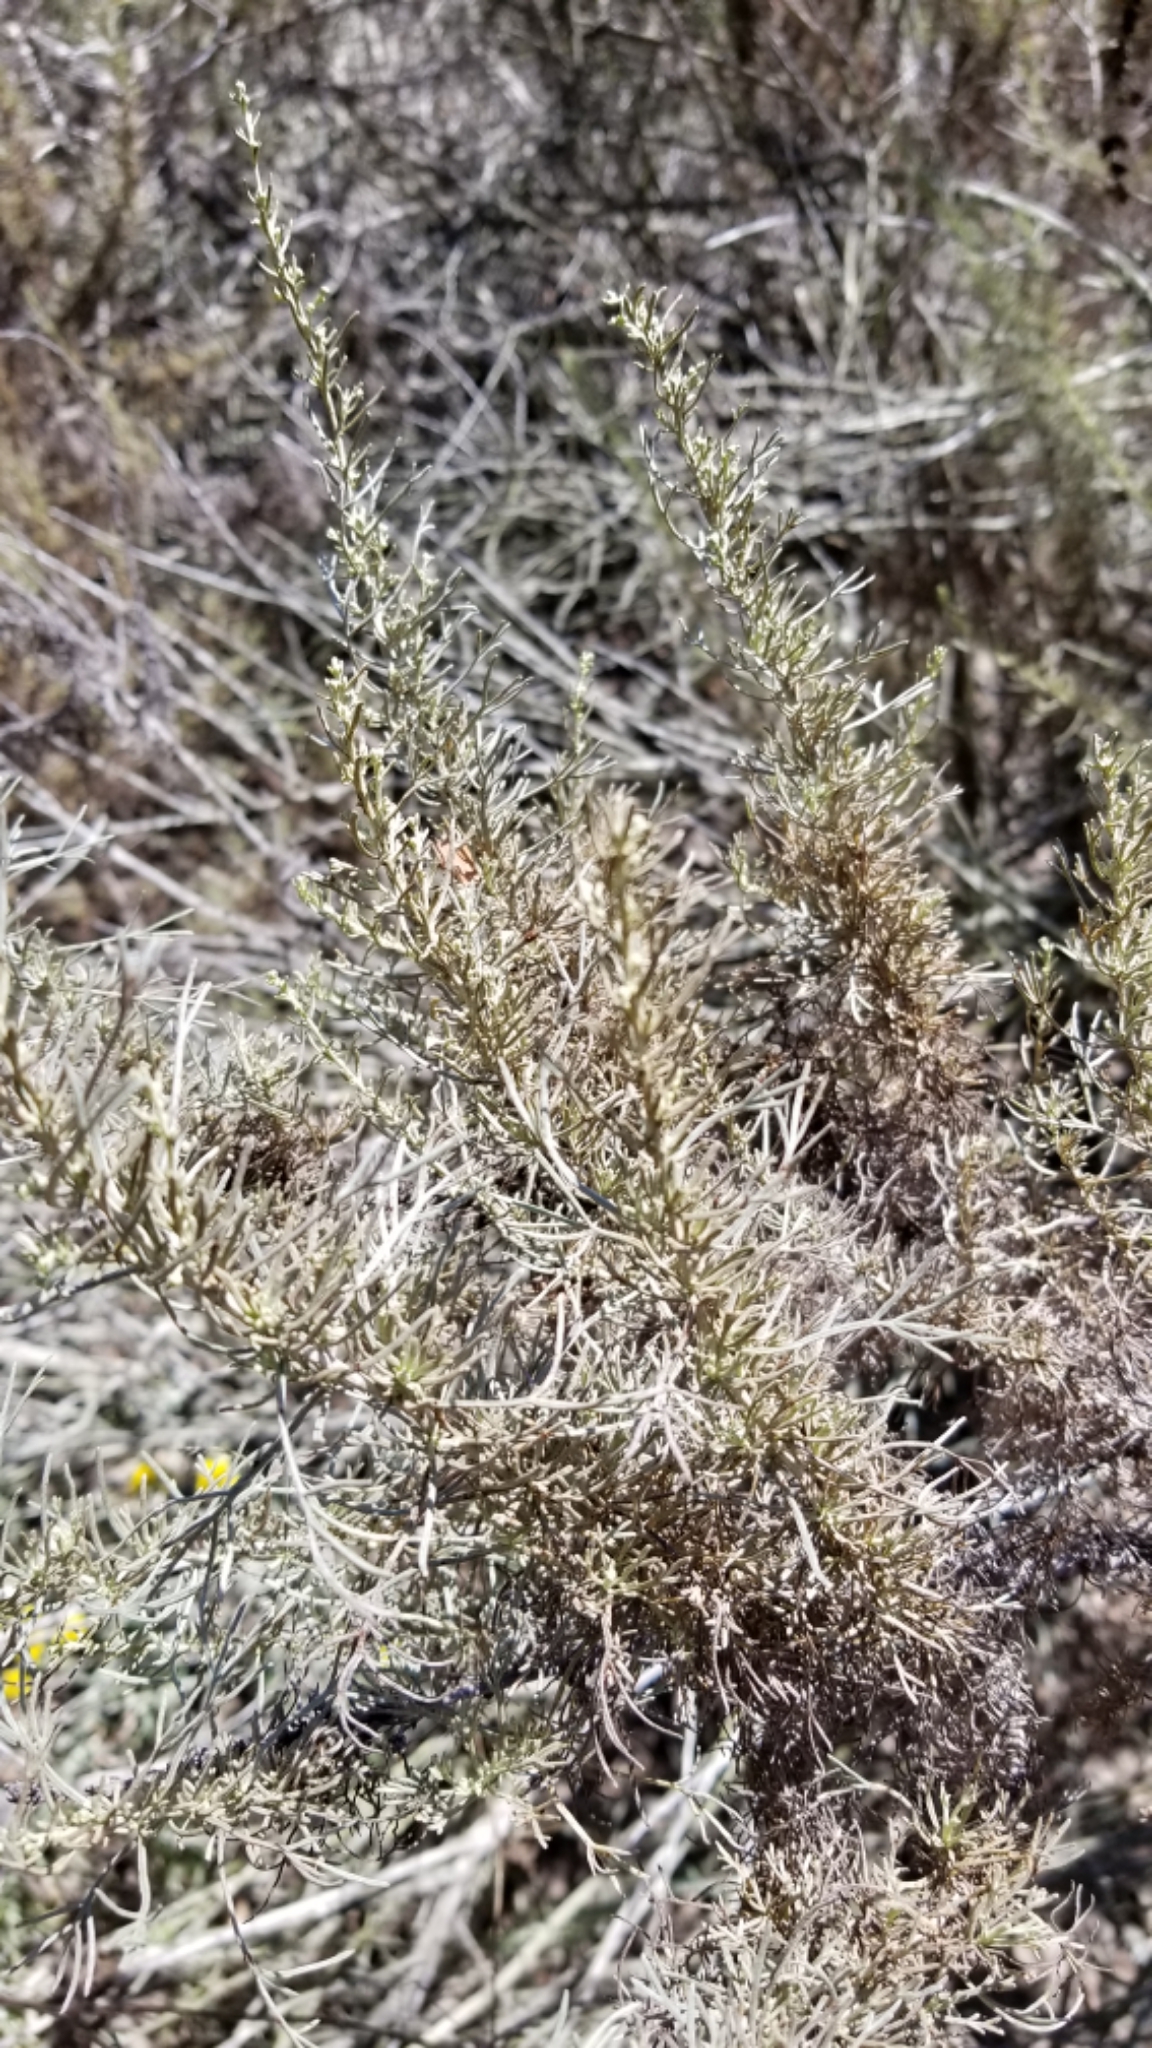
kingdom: Plantae
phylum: Tracheophyta
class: Magnoliopsida
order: Asterales
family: Asteraceae
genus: Artemisia
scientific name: Artemisia californica
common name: California sagebrush
